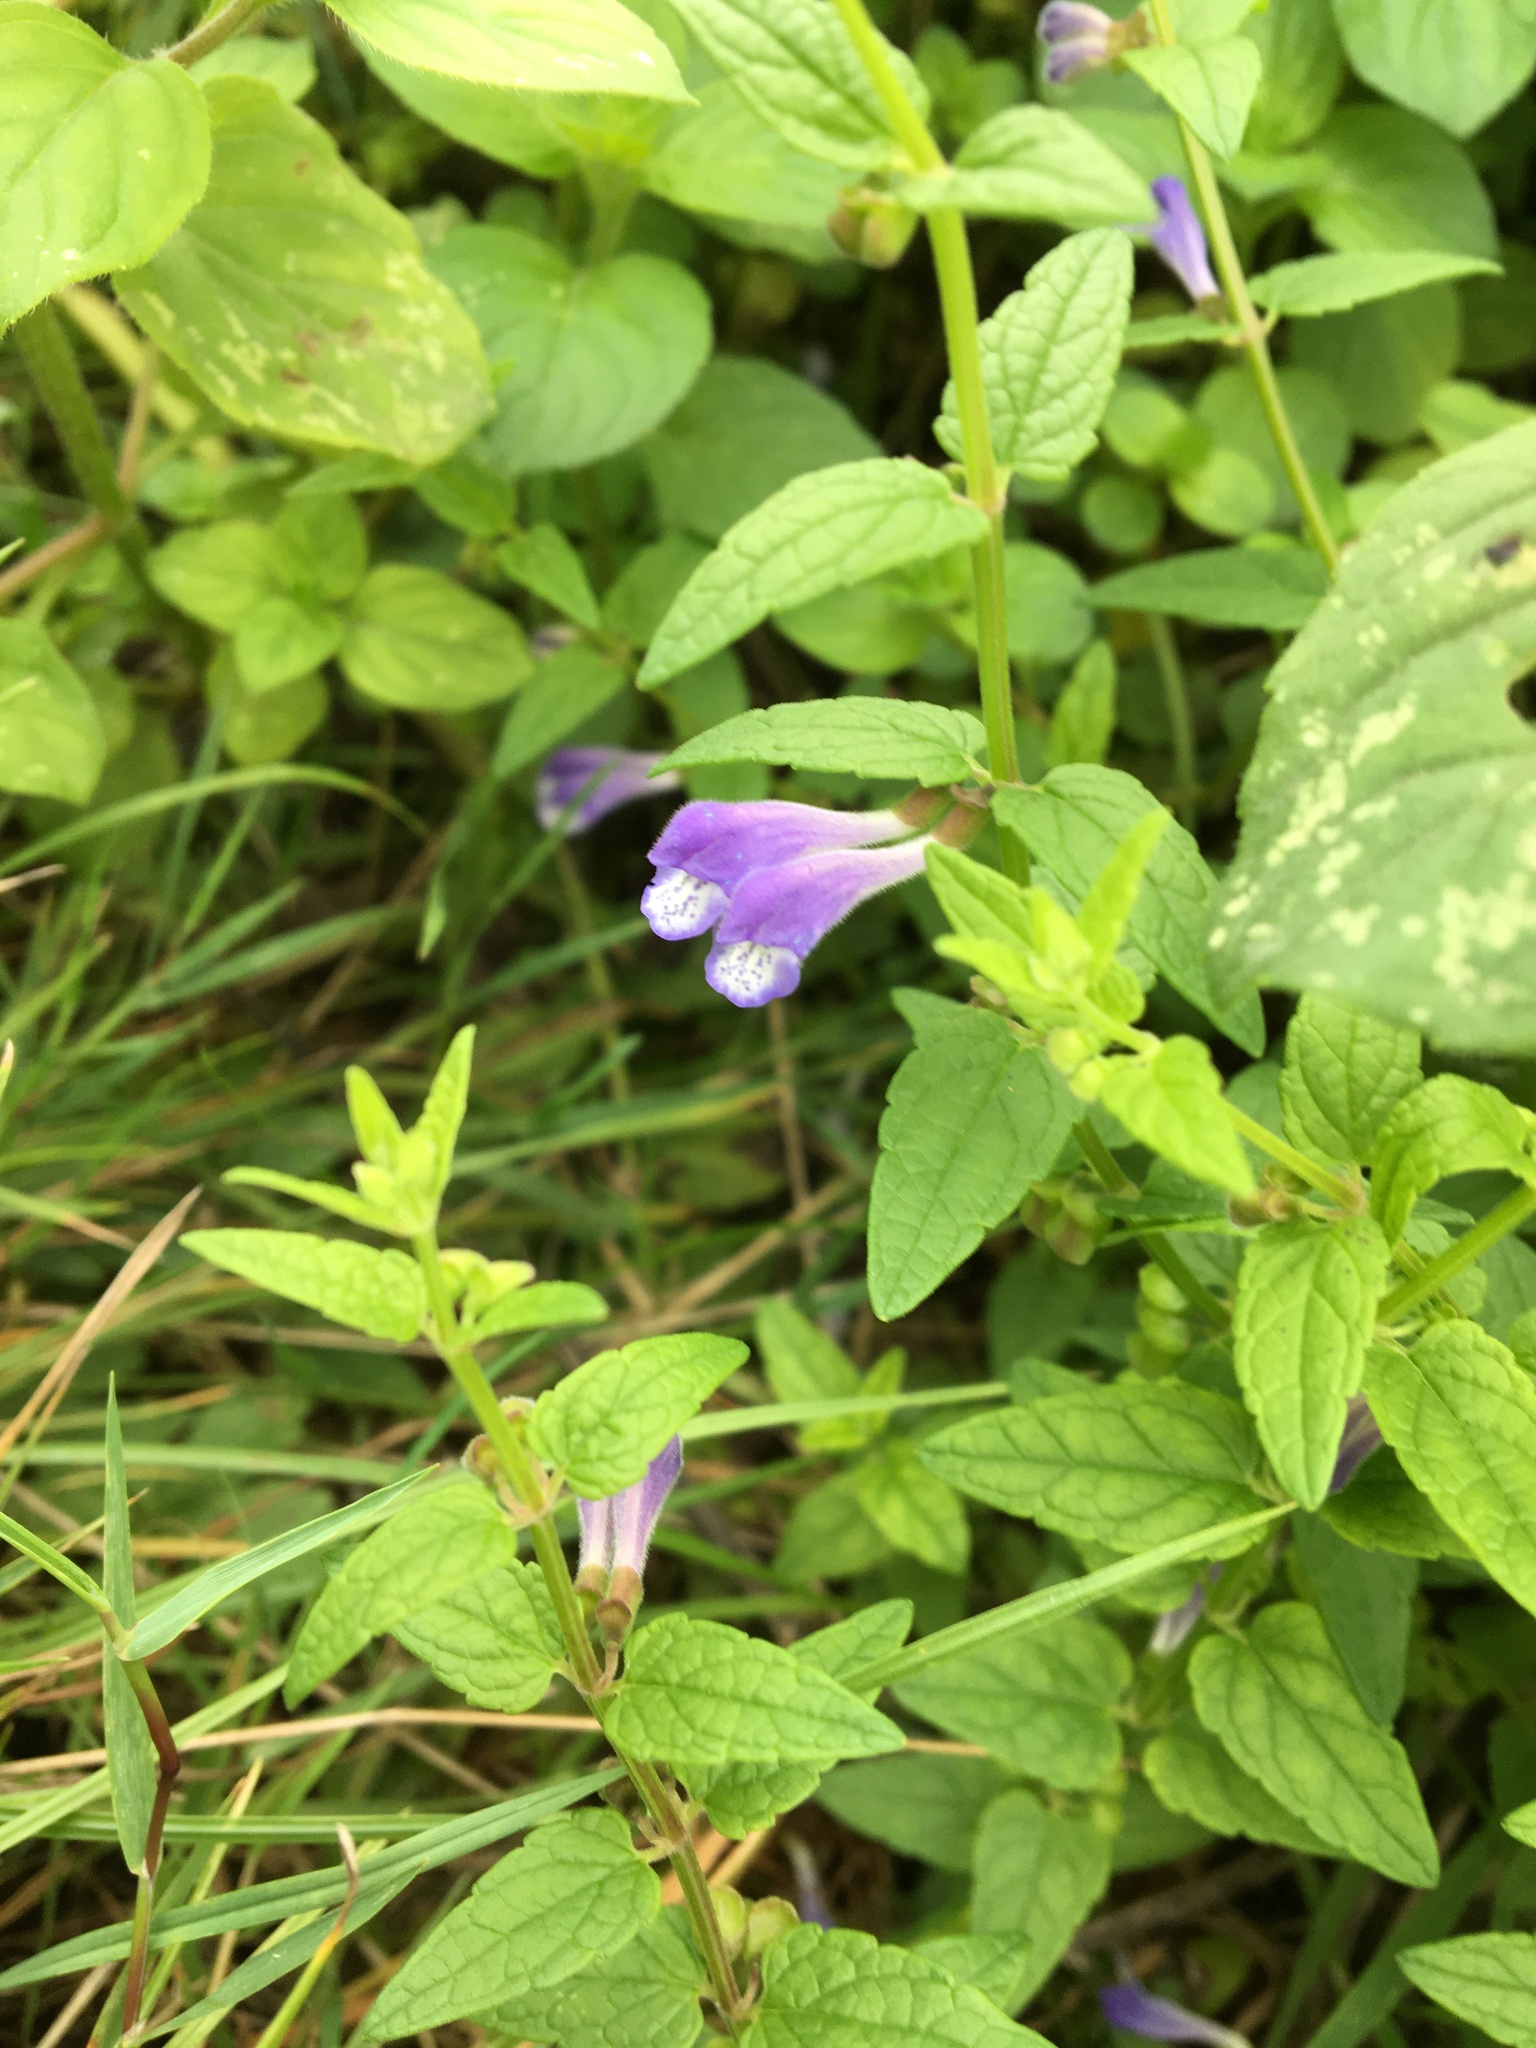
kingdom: Plantae
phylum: Tracheophyta
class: Magnoliopsida
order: Lamiales
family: Lamiaceae
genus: Scutellaria
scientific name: Scutellaria galericulata
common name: Skullcap
